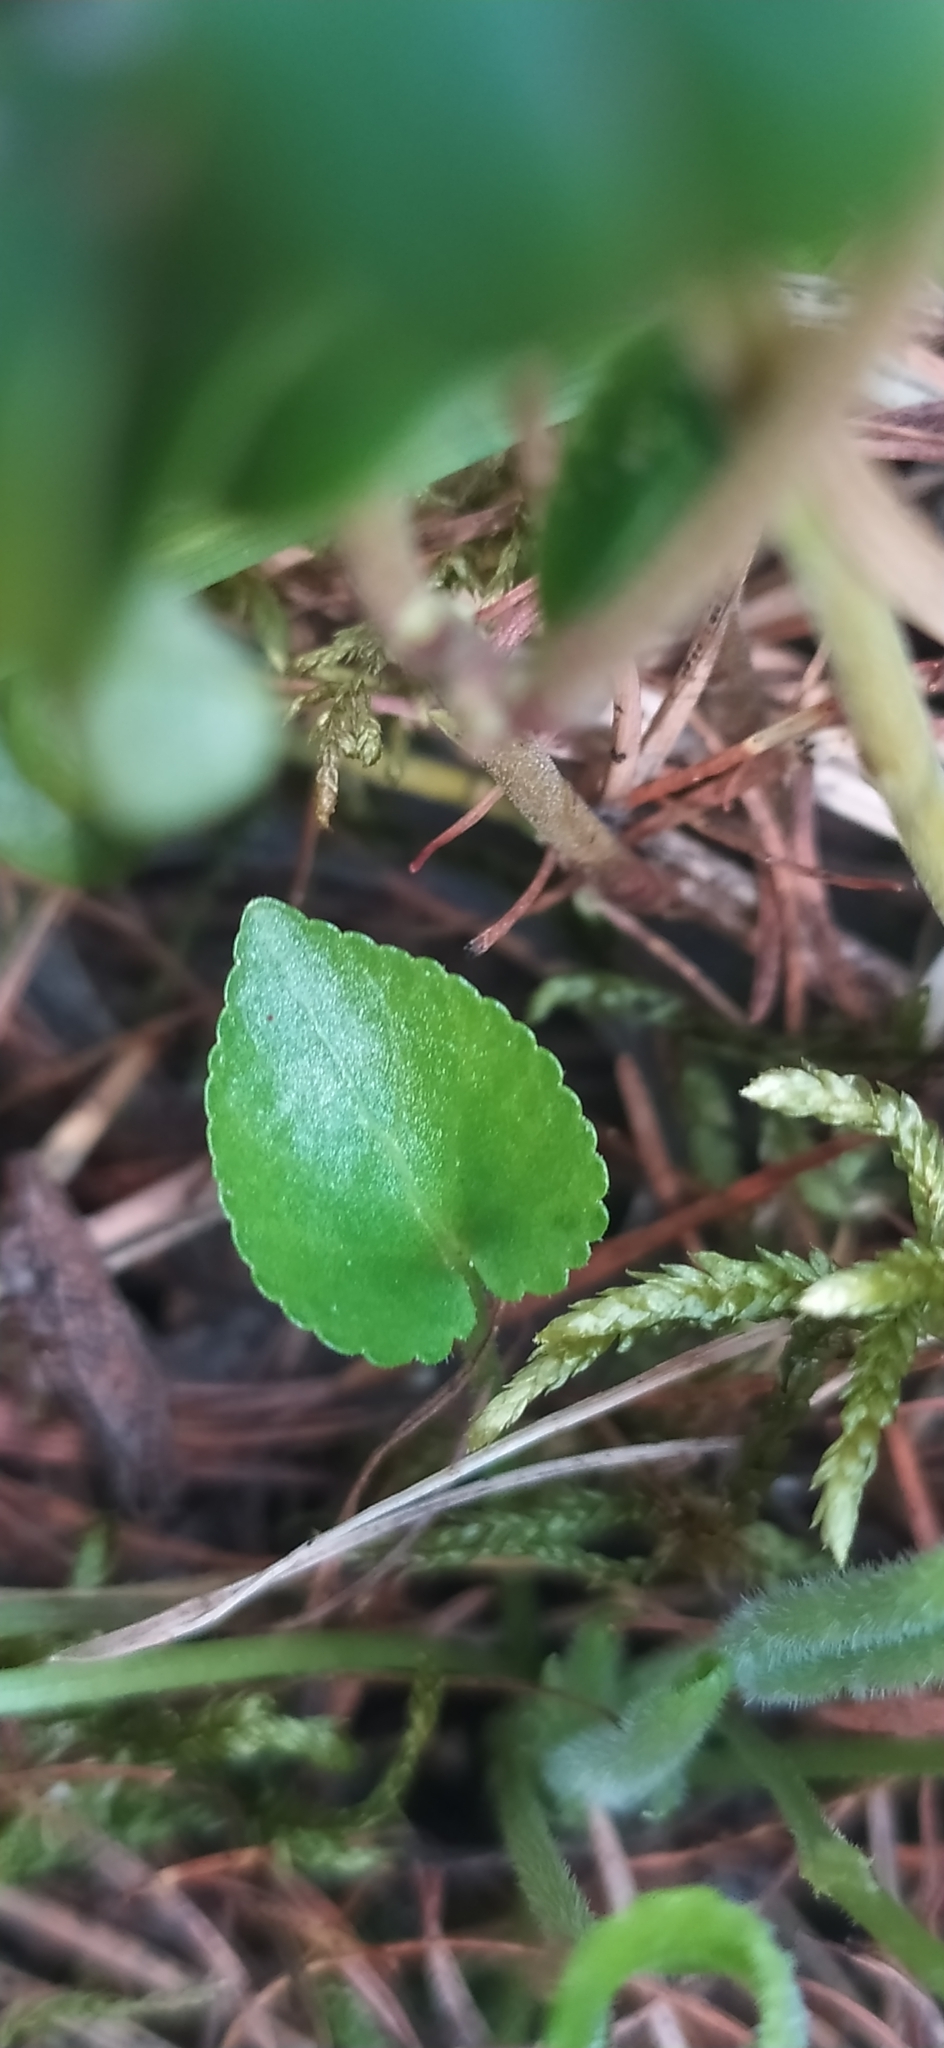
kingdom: Plantae
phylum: Tracheophyta
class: Magnoliopsida
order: Malpighiales
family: Violaceae
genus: Viola
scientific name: Viola collina
